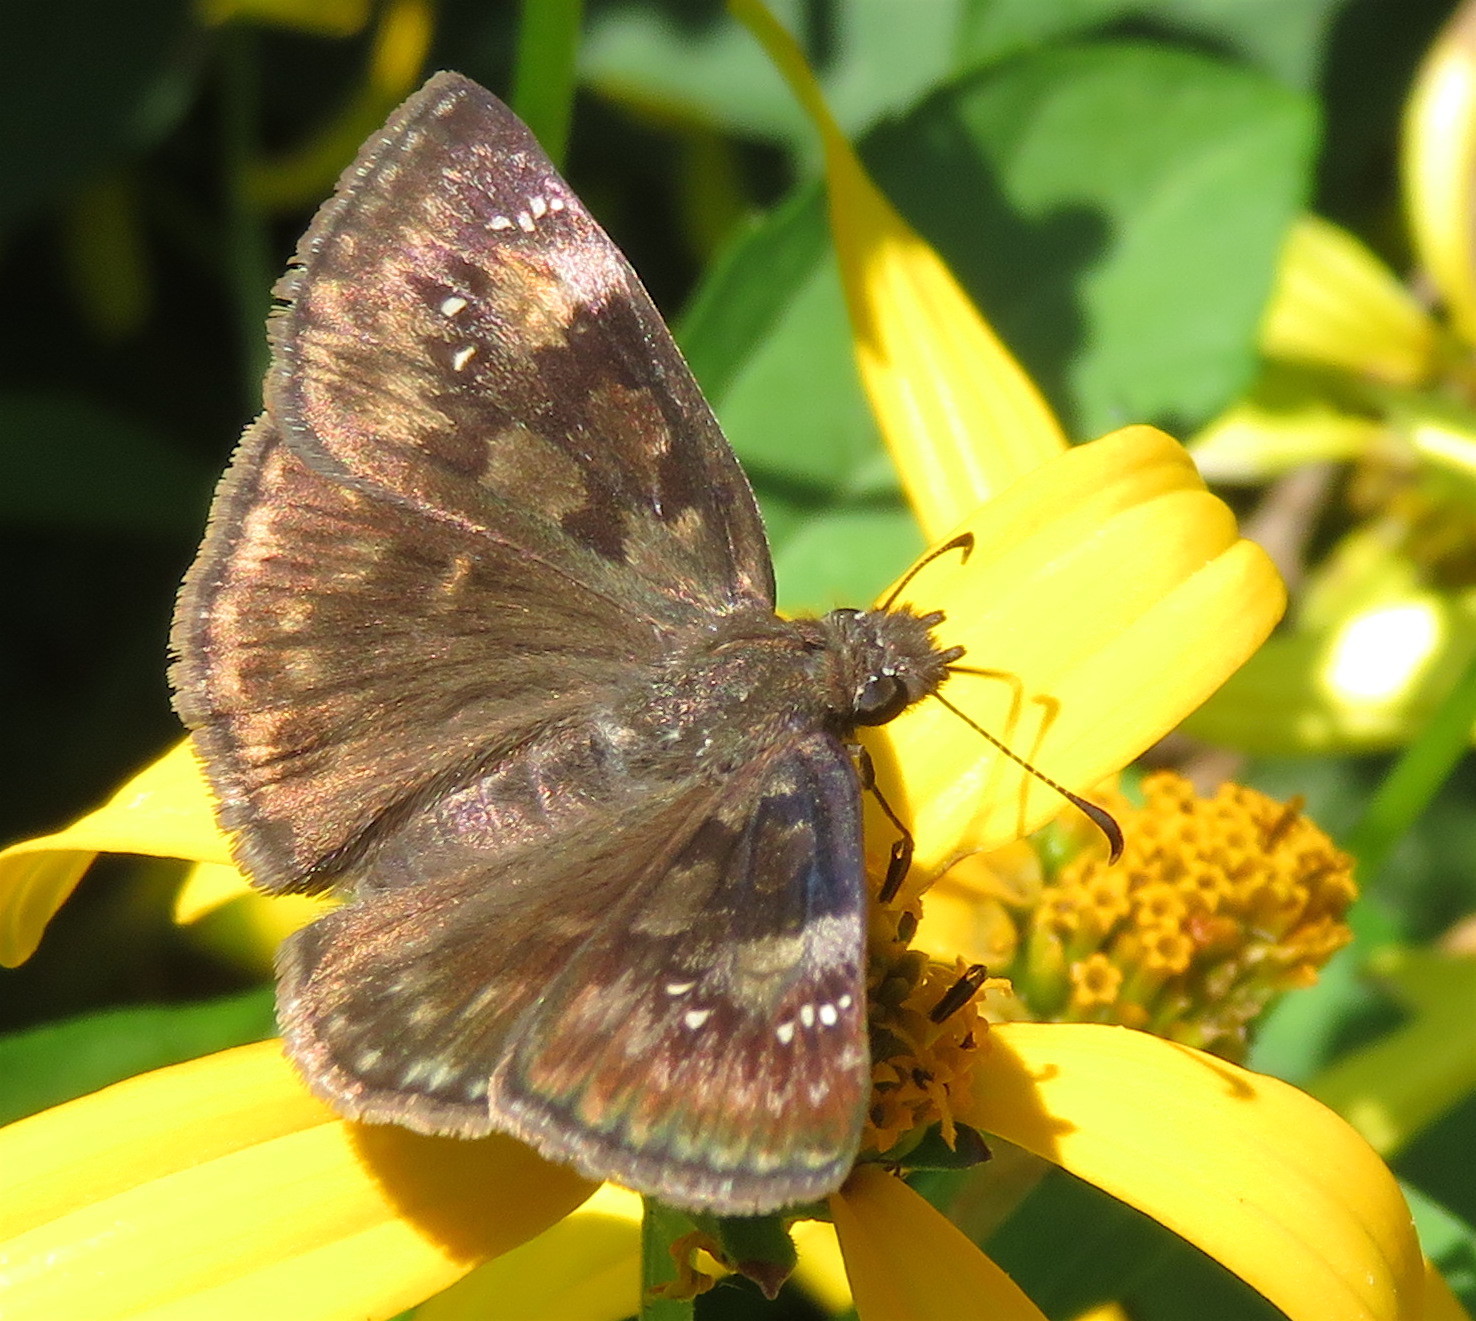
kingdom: Animalia
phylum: Arthropoda
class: Insecta
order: Lepidoptera
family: Hesperiidae
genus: Erynnis
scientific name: Erynnis baptisiae
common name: Wild indigo duskywing
